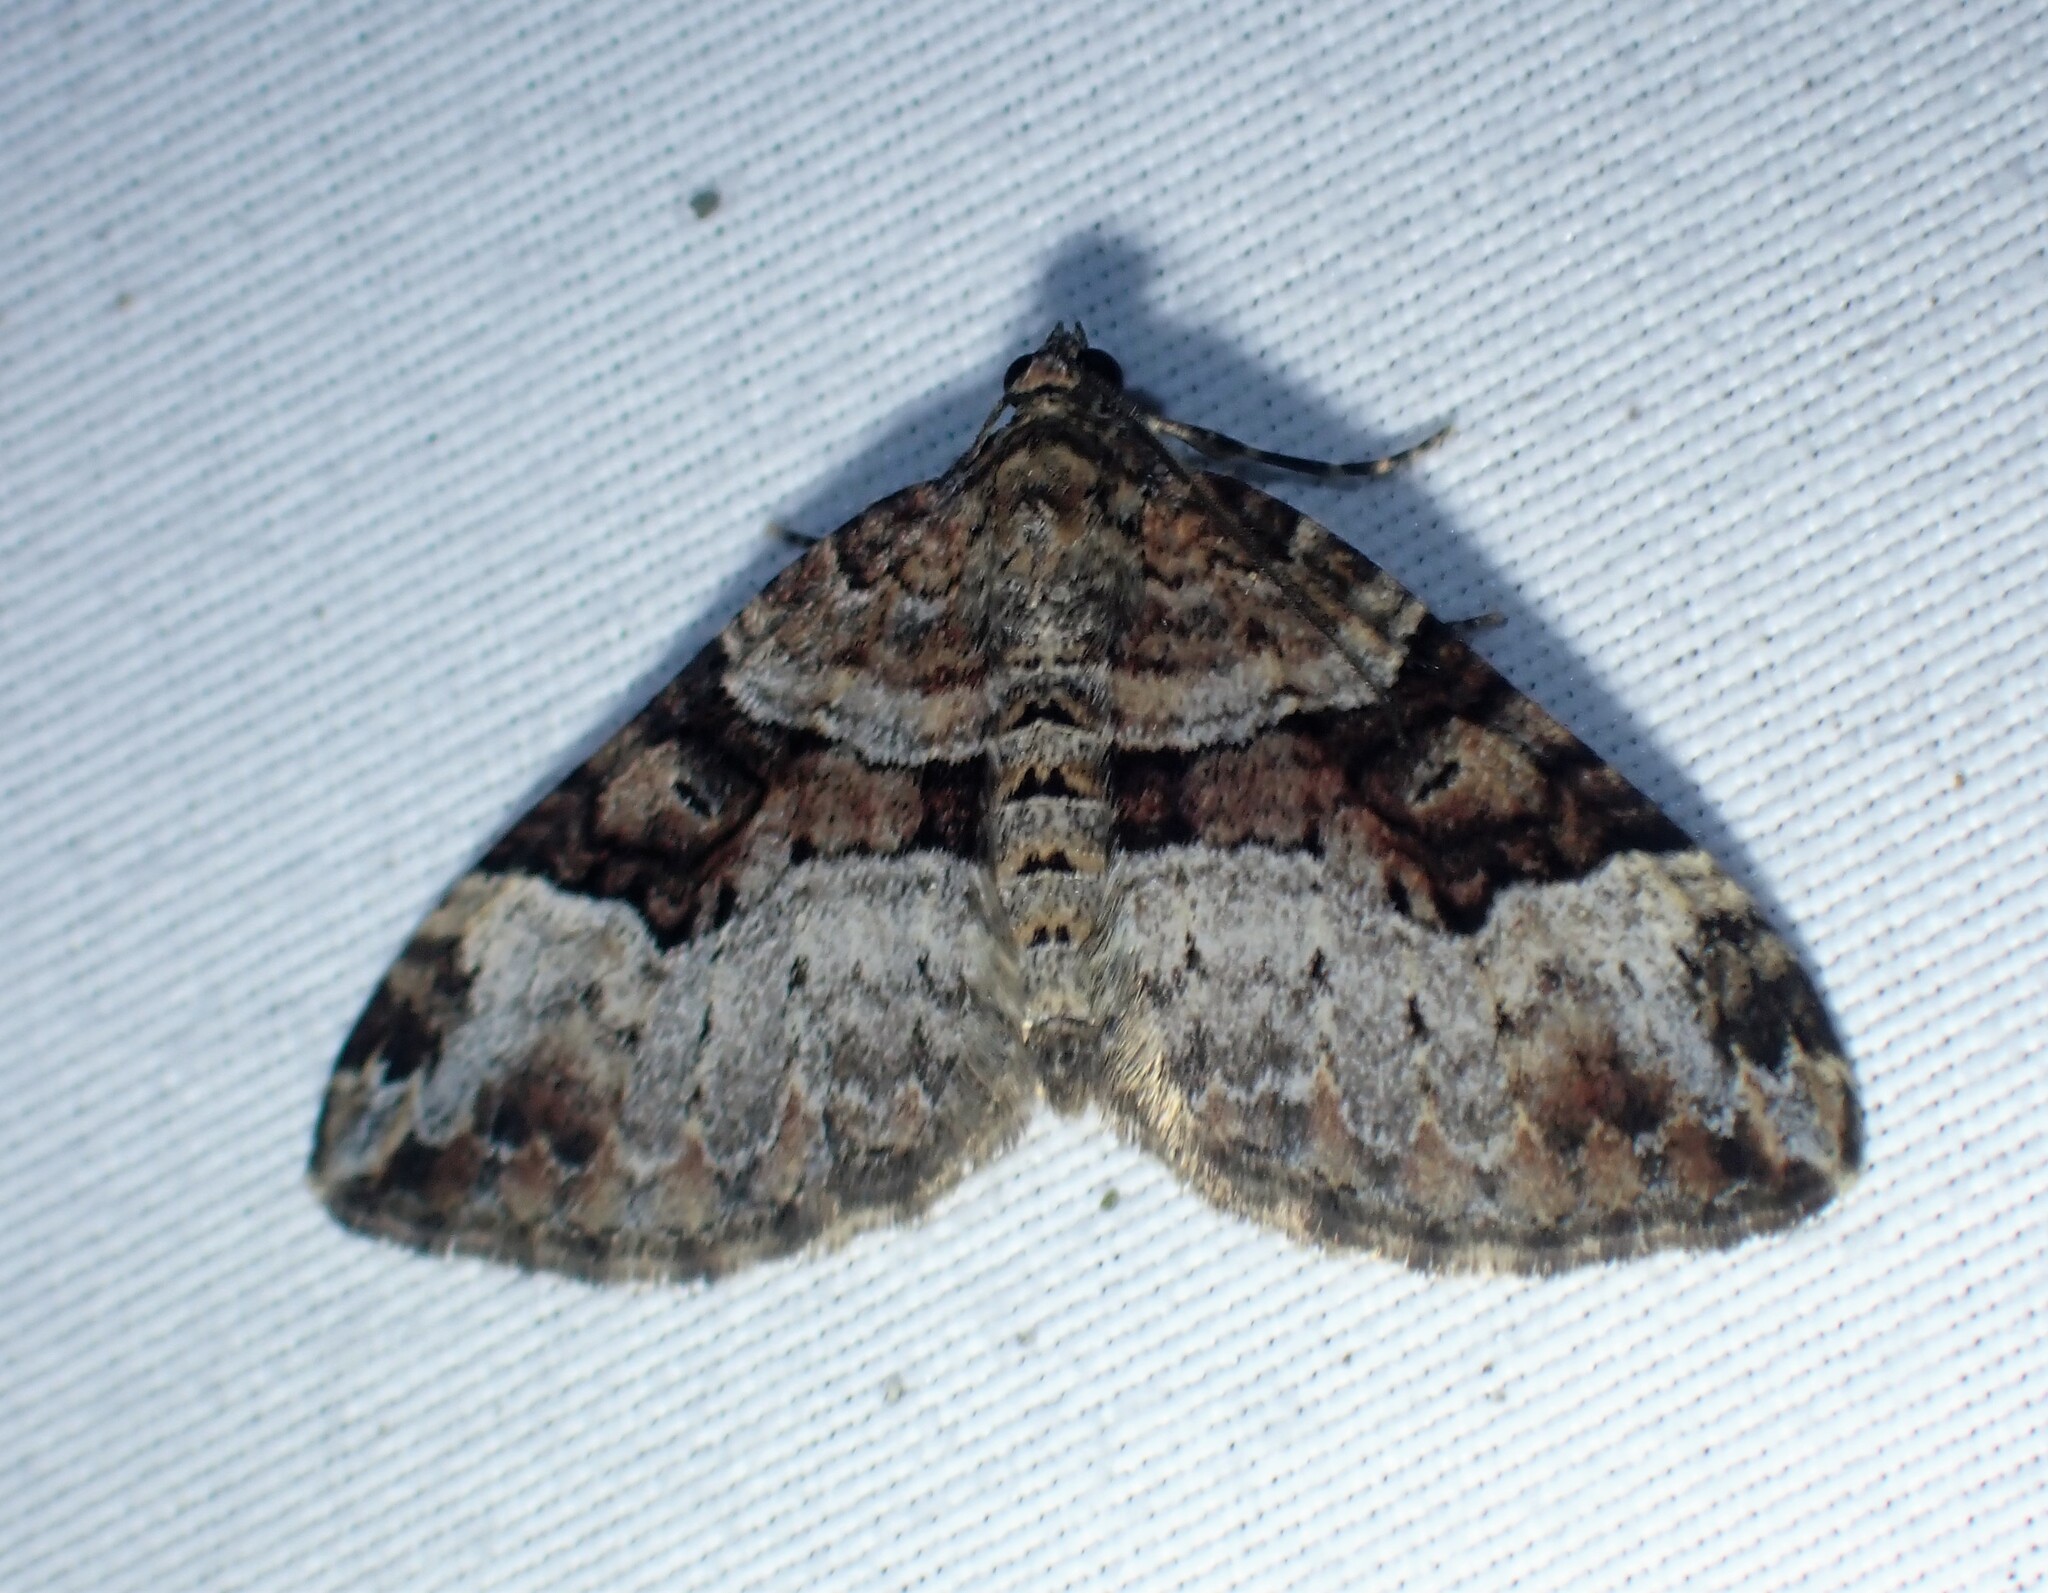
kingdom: Animalia
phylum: Arthropoda
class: Insecta
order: Lepidoptera
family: Geometridae
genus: Xanthorhoe
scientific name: Xanthorhoe lacustrata
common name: Toothed brown carpet
